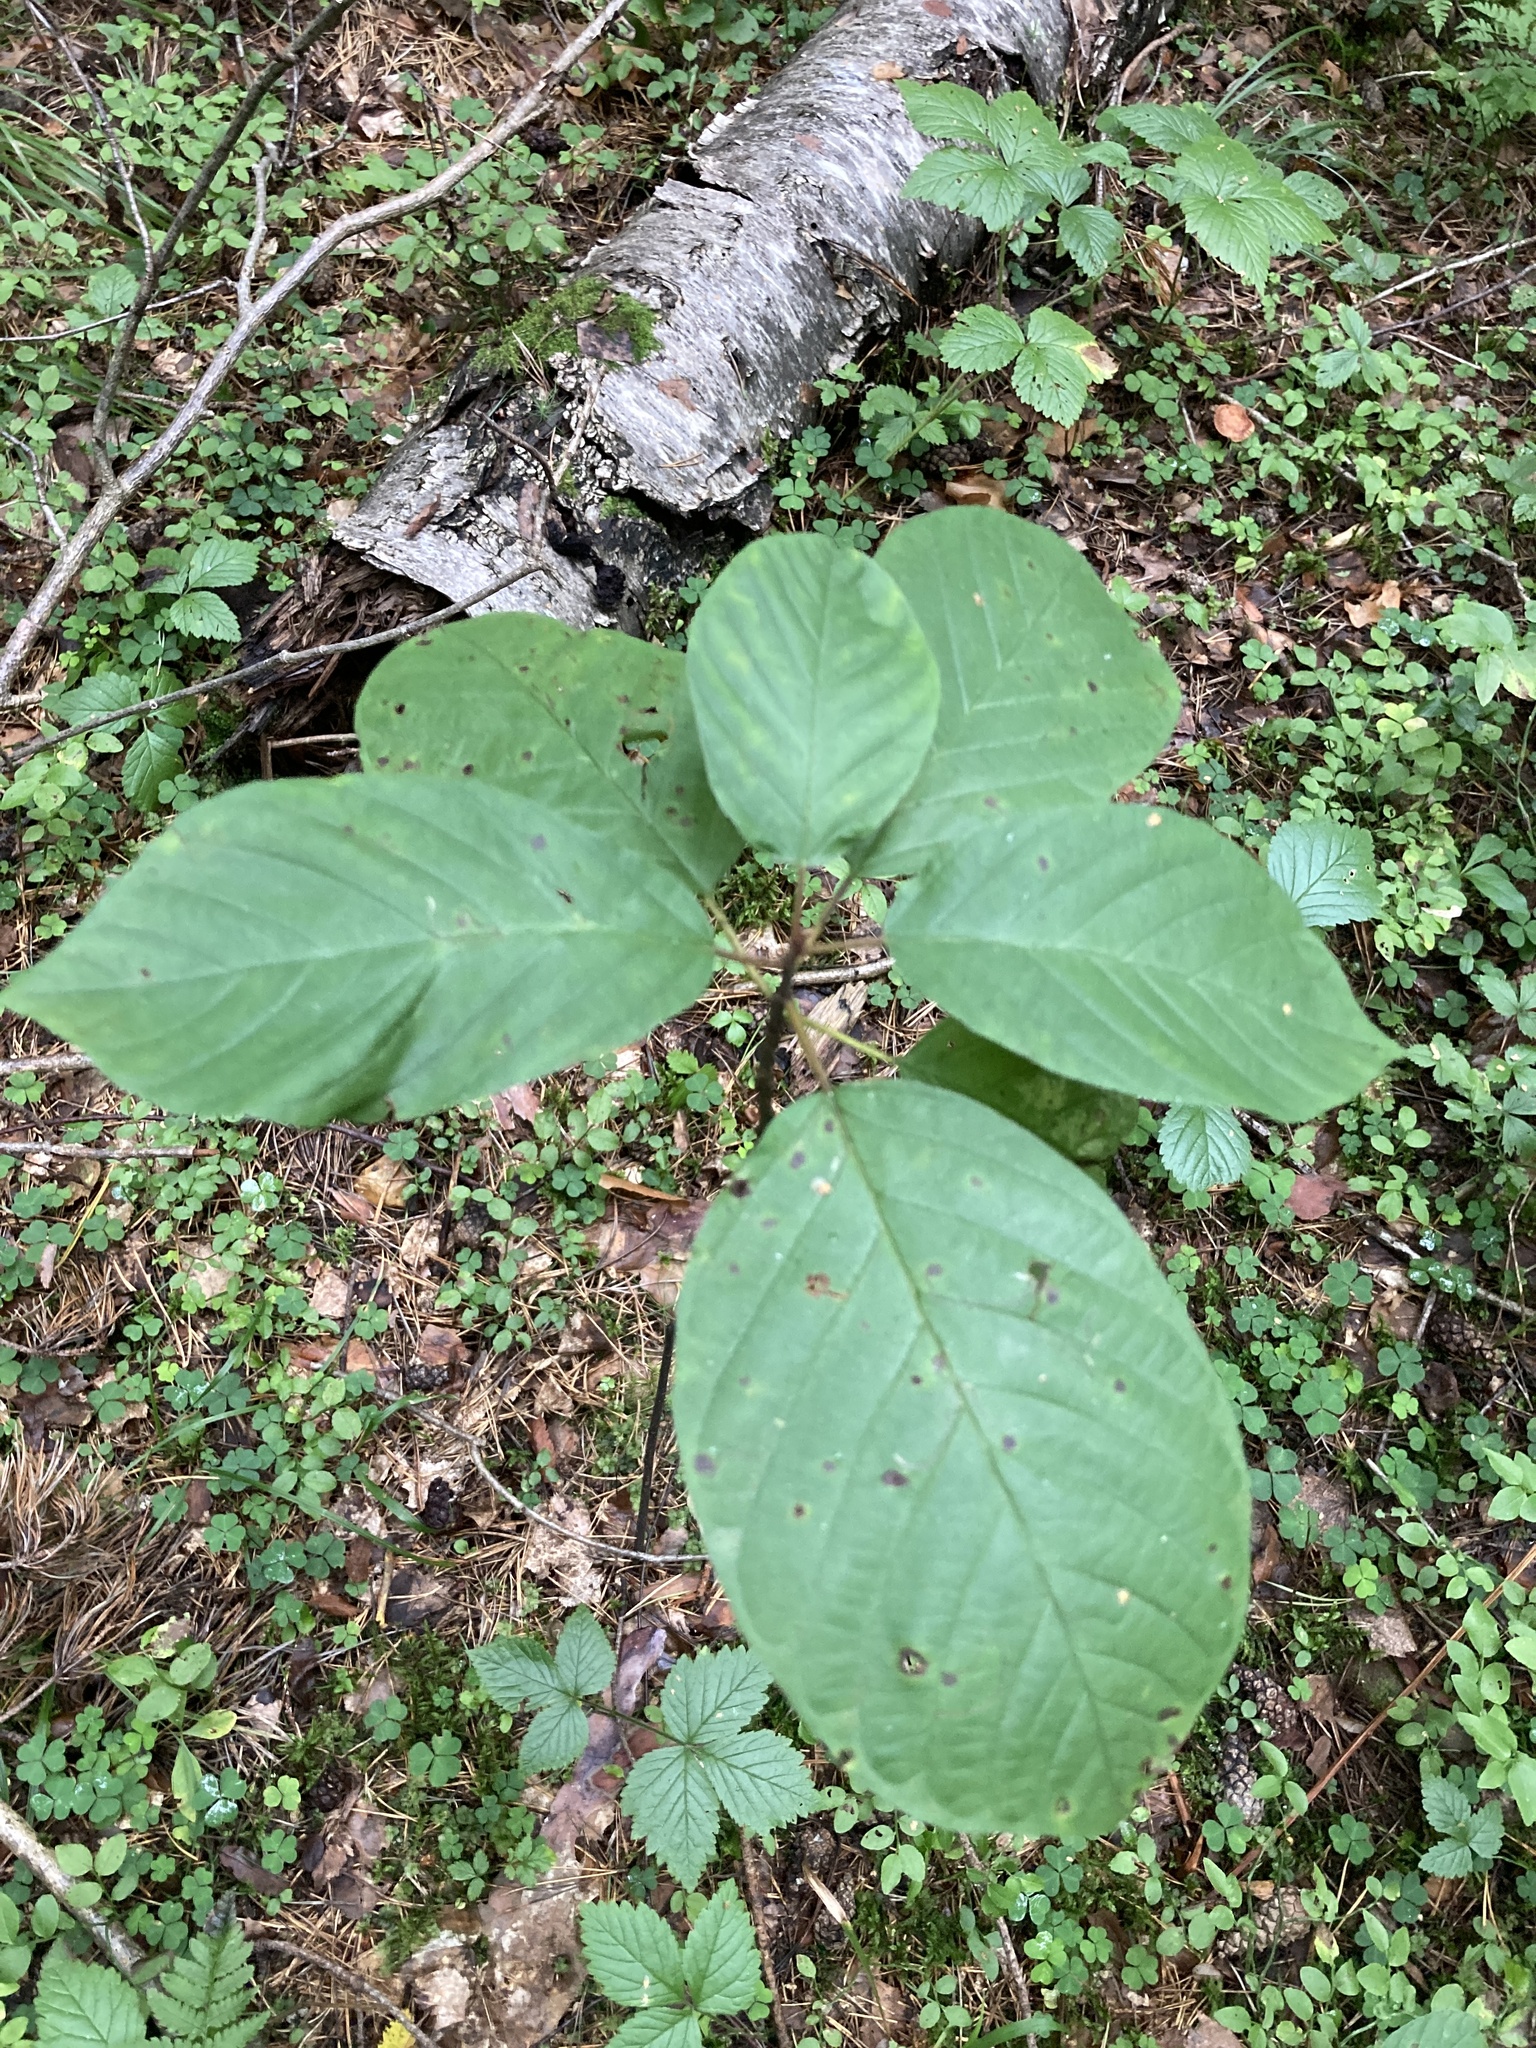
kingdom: Plantae
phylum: Tracheophyta
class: Magnoliopsida
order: Rosales
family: Rhamnaceae
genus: Frangula
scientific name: Frangula alnus
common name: Alder buckthorn
